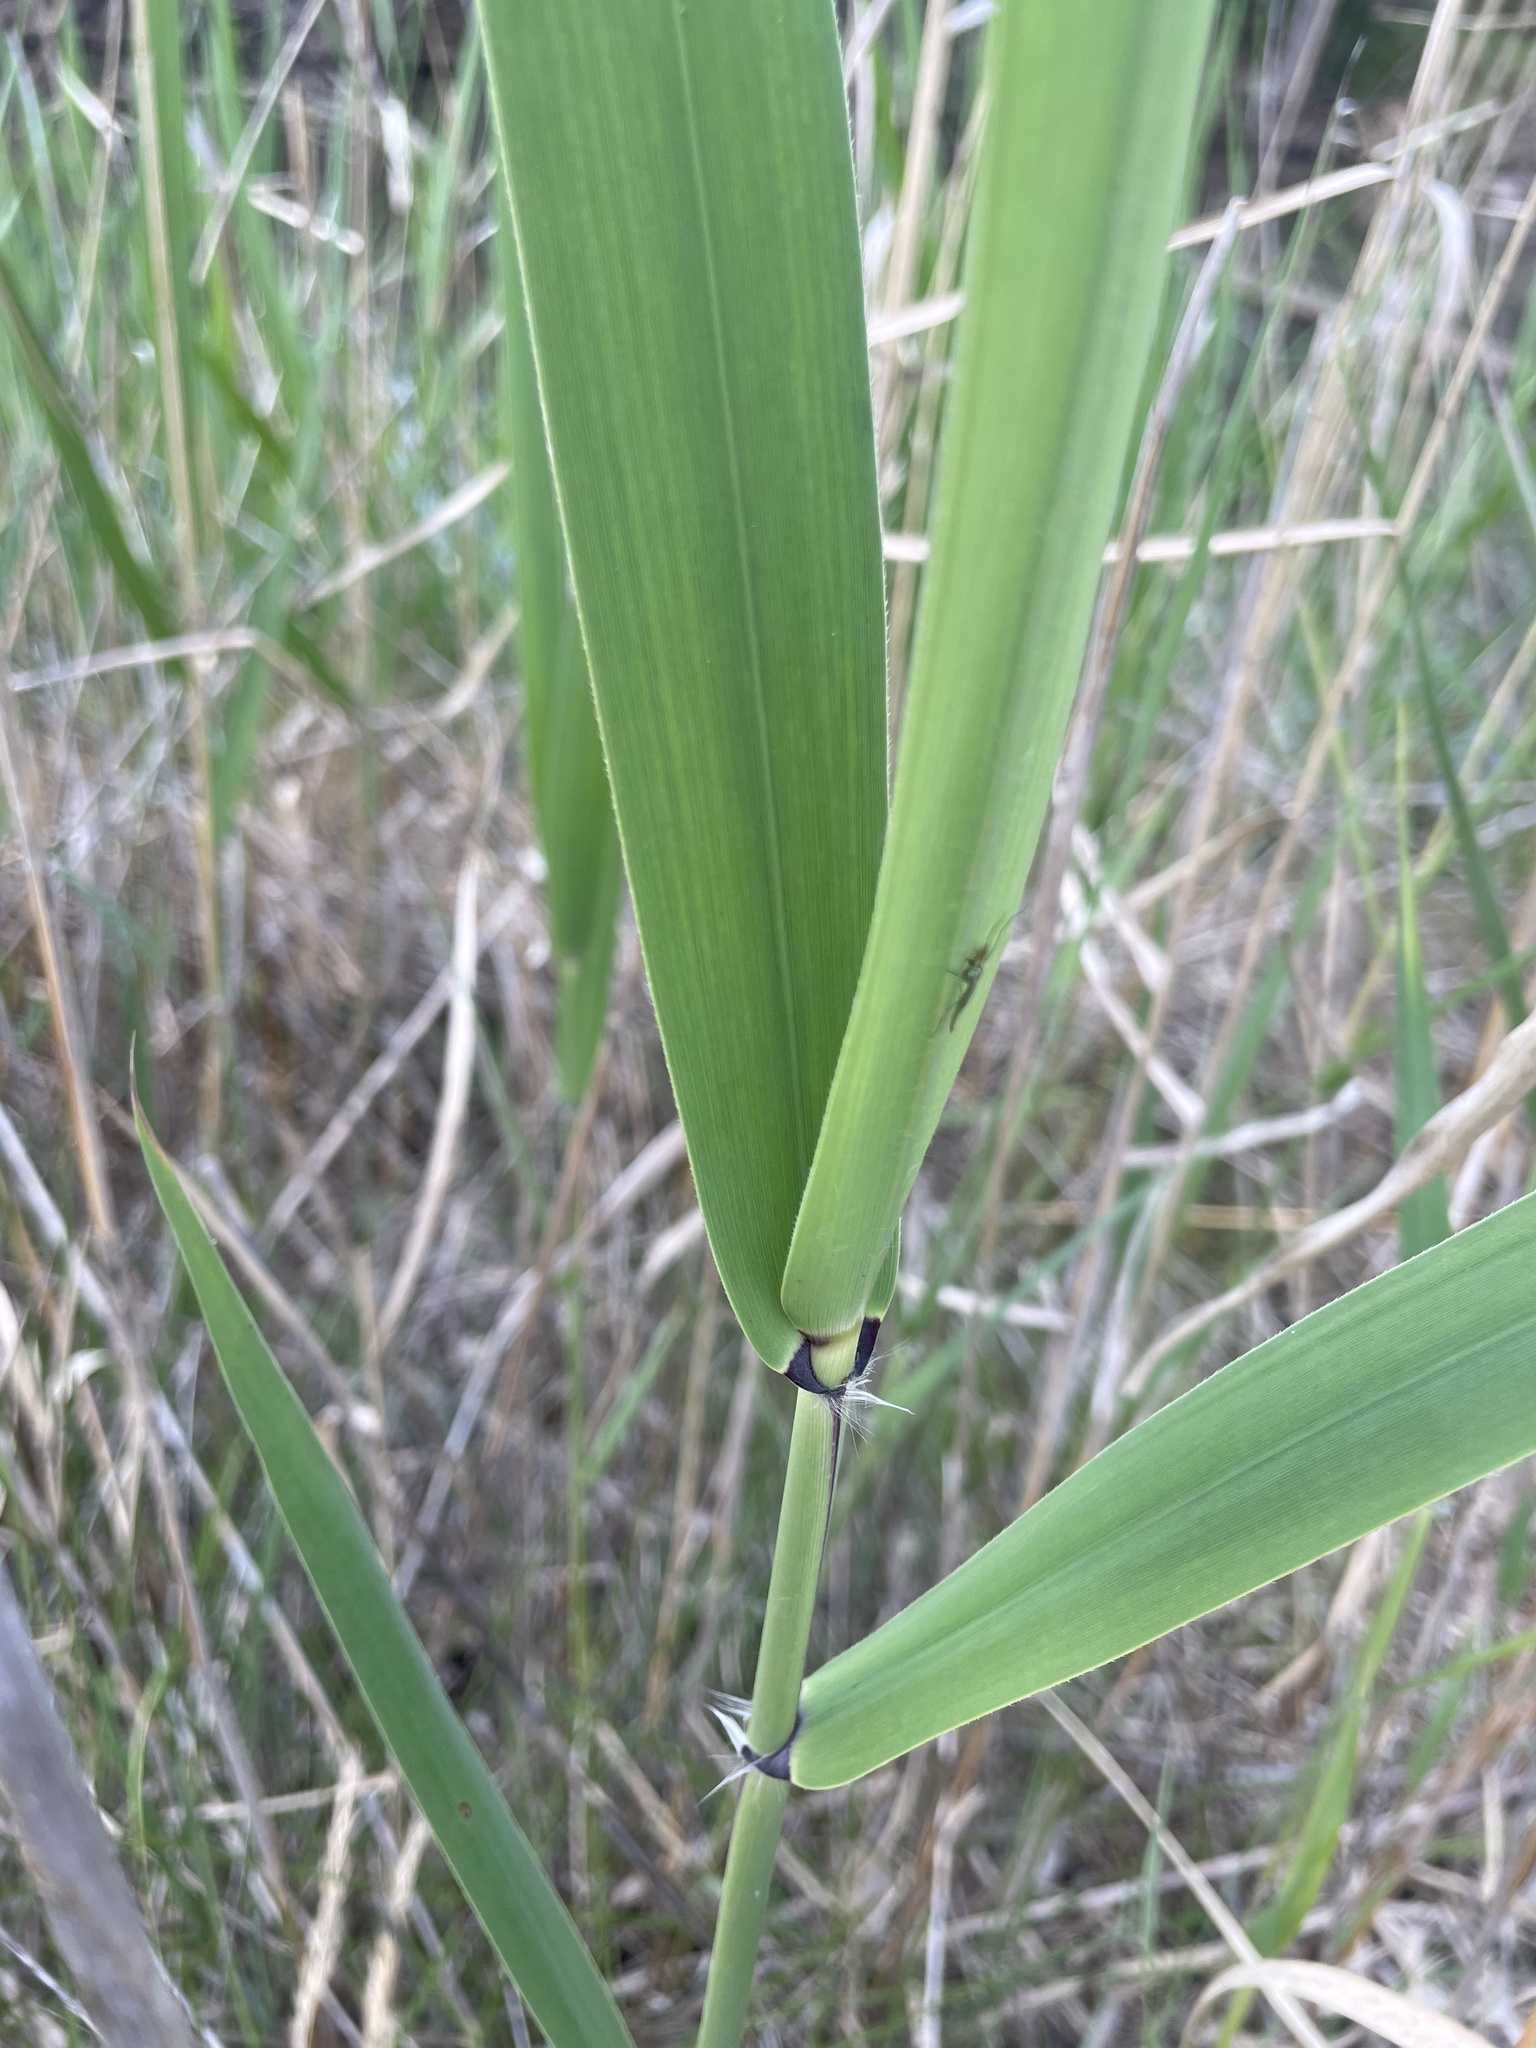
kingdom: Plantae
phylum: Tracheophyta
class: Liliopsida
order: Poales
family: Poaceae
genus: Phragmites
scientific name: Phragmites australis
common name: Common reed
